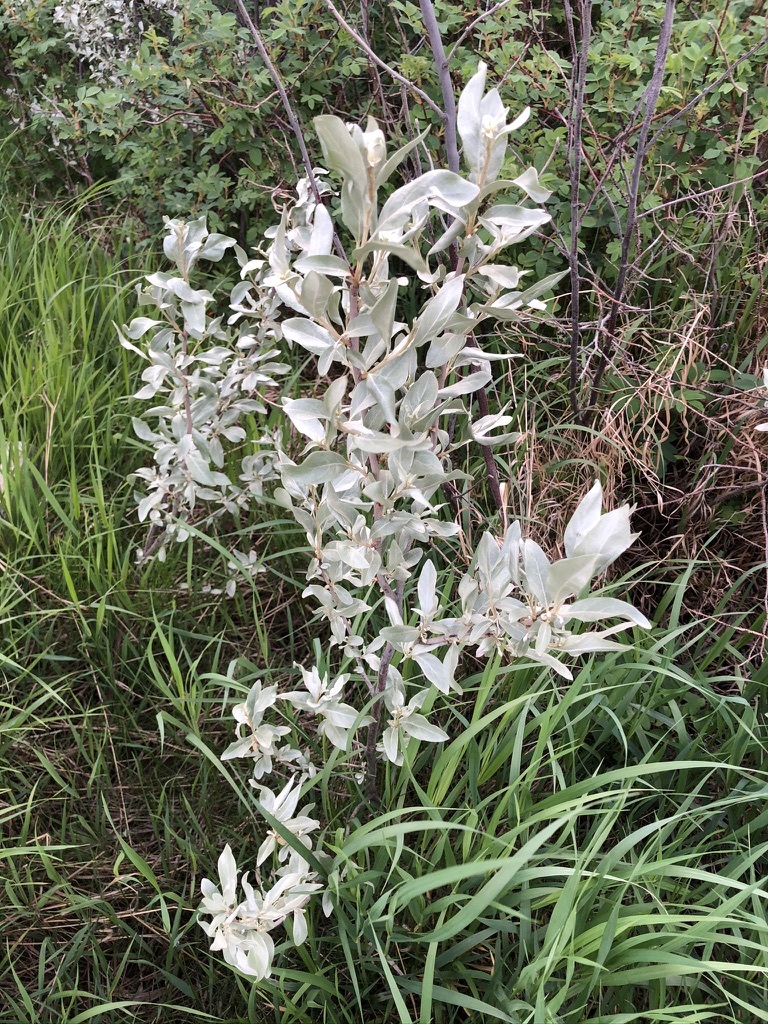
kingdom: Plantae
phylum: Tracheophyta
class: Magnoliopsida
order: Rosales
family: Elaeagnaceae
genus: Elaeagnus
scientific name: Elaeagnus commutata
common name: Silverberry
